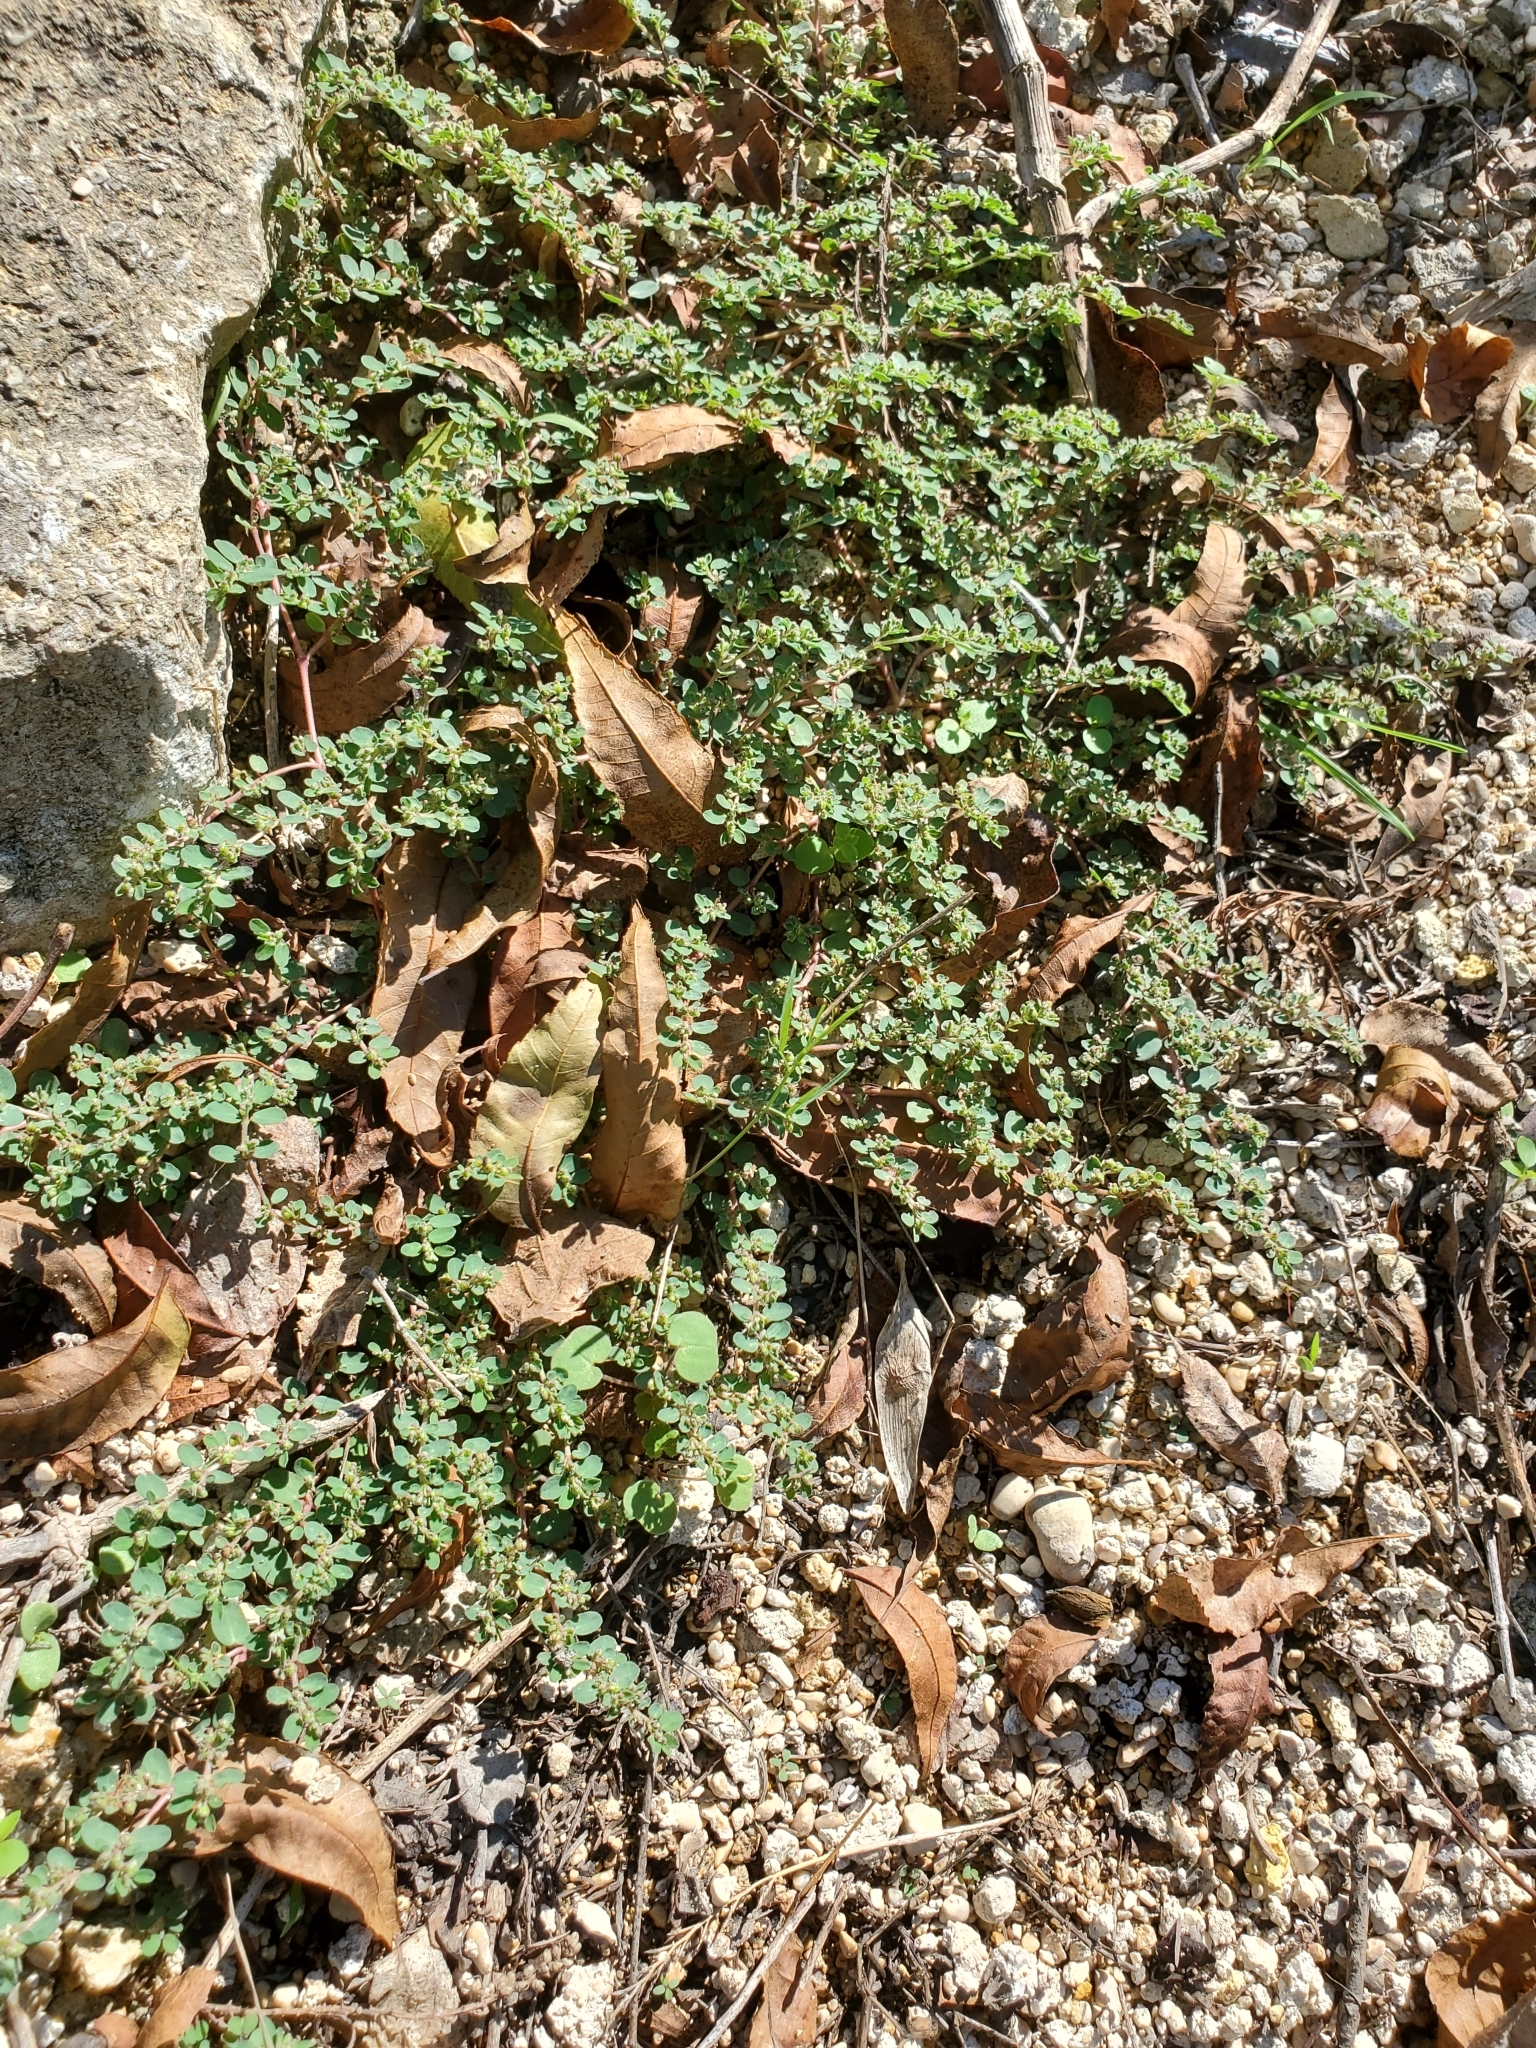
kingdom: Plantae
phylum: Tracheophyta
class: Magnoliopsida
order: Malpighiales
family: Euphorbiaceae
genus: Euphorbia
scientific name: Euphorbia prostrata
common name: Prostrate sandmat
